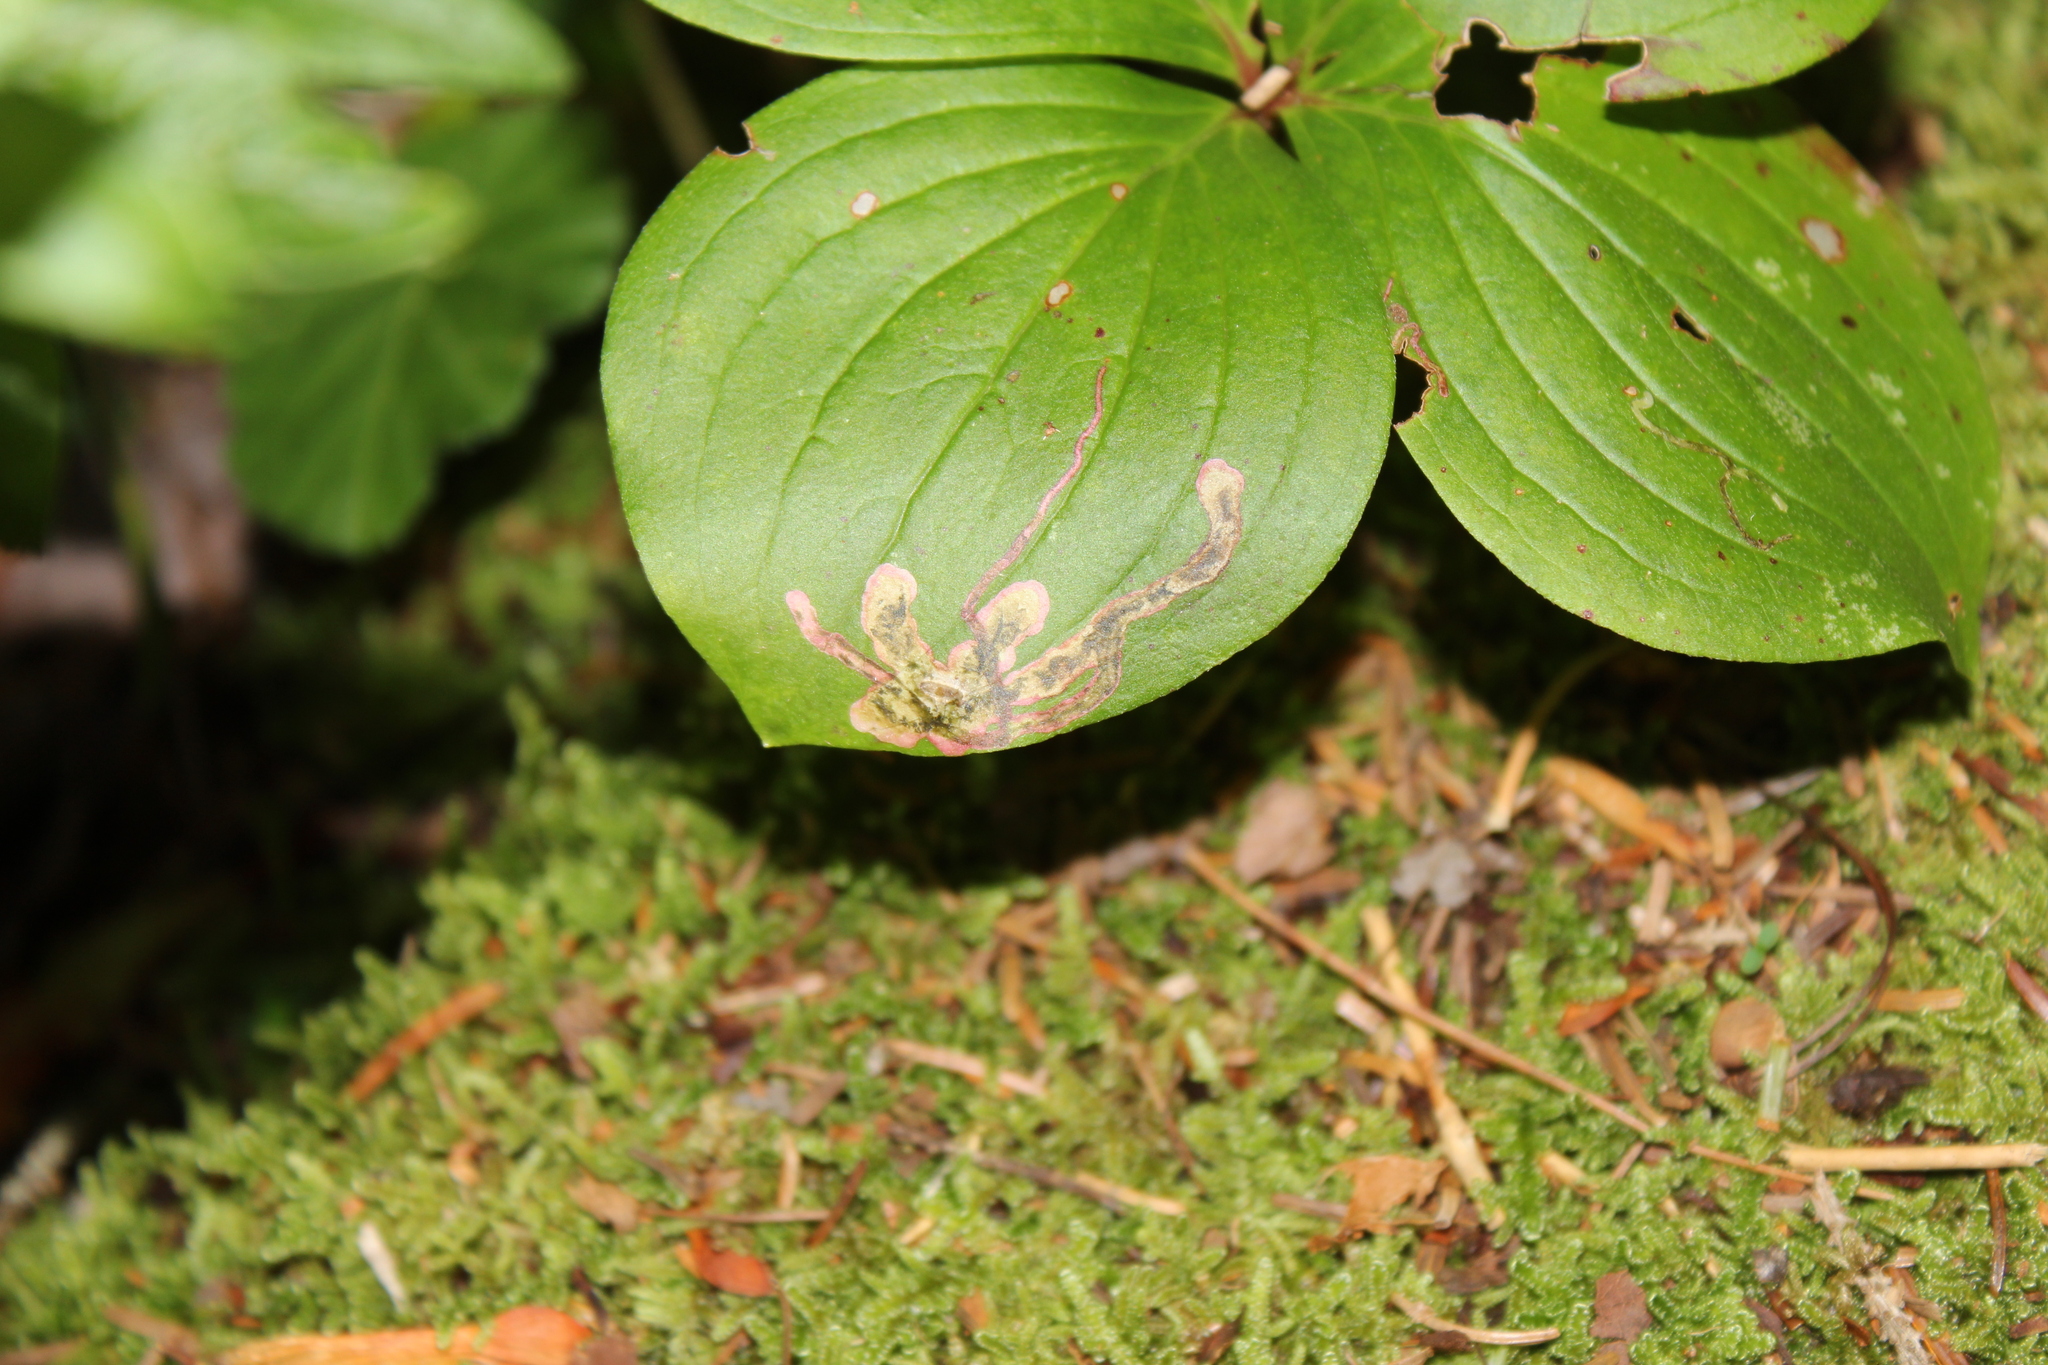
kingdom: Animalia
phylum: Arthropoda
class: Insecta
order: Diptera
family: Agromyzidae
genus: Phytomyza
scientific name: Phytomyza agromyzina
